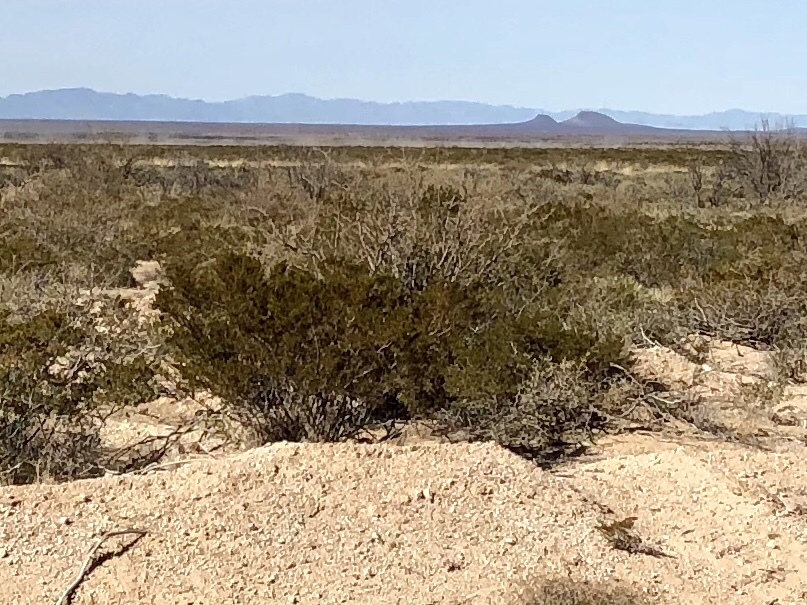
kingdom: Plantae
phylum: Tracheophyta
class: Magnoliopsida
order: Zygophyllales
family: Zygophyllaceae
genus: Larrea
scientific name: Larrea tridentata
